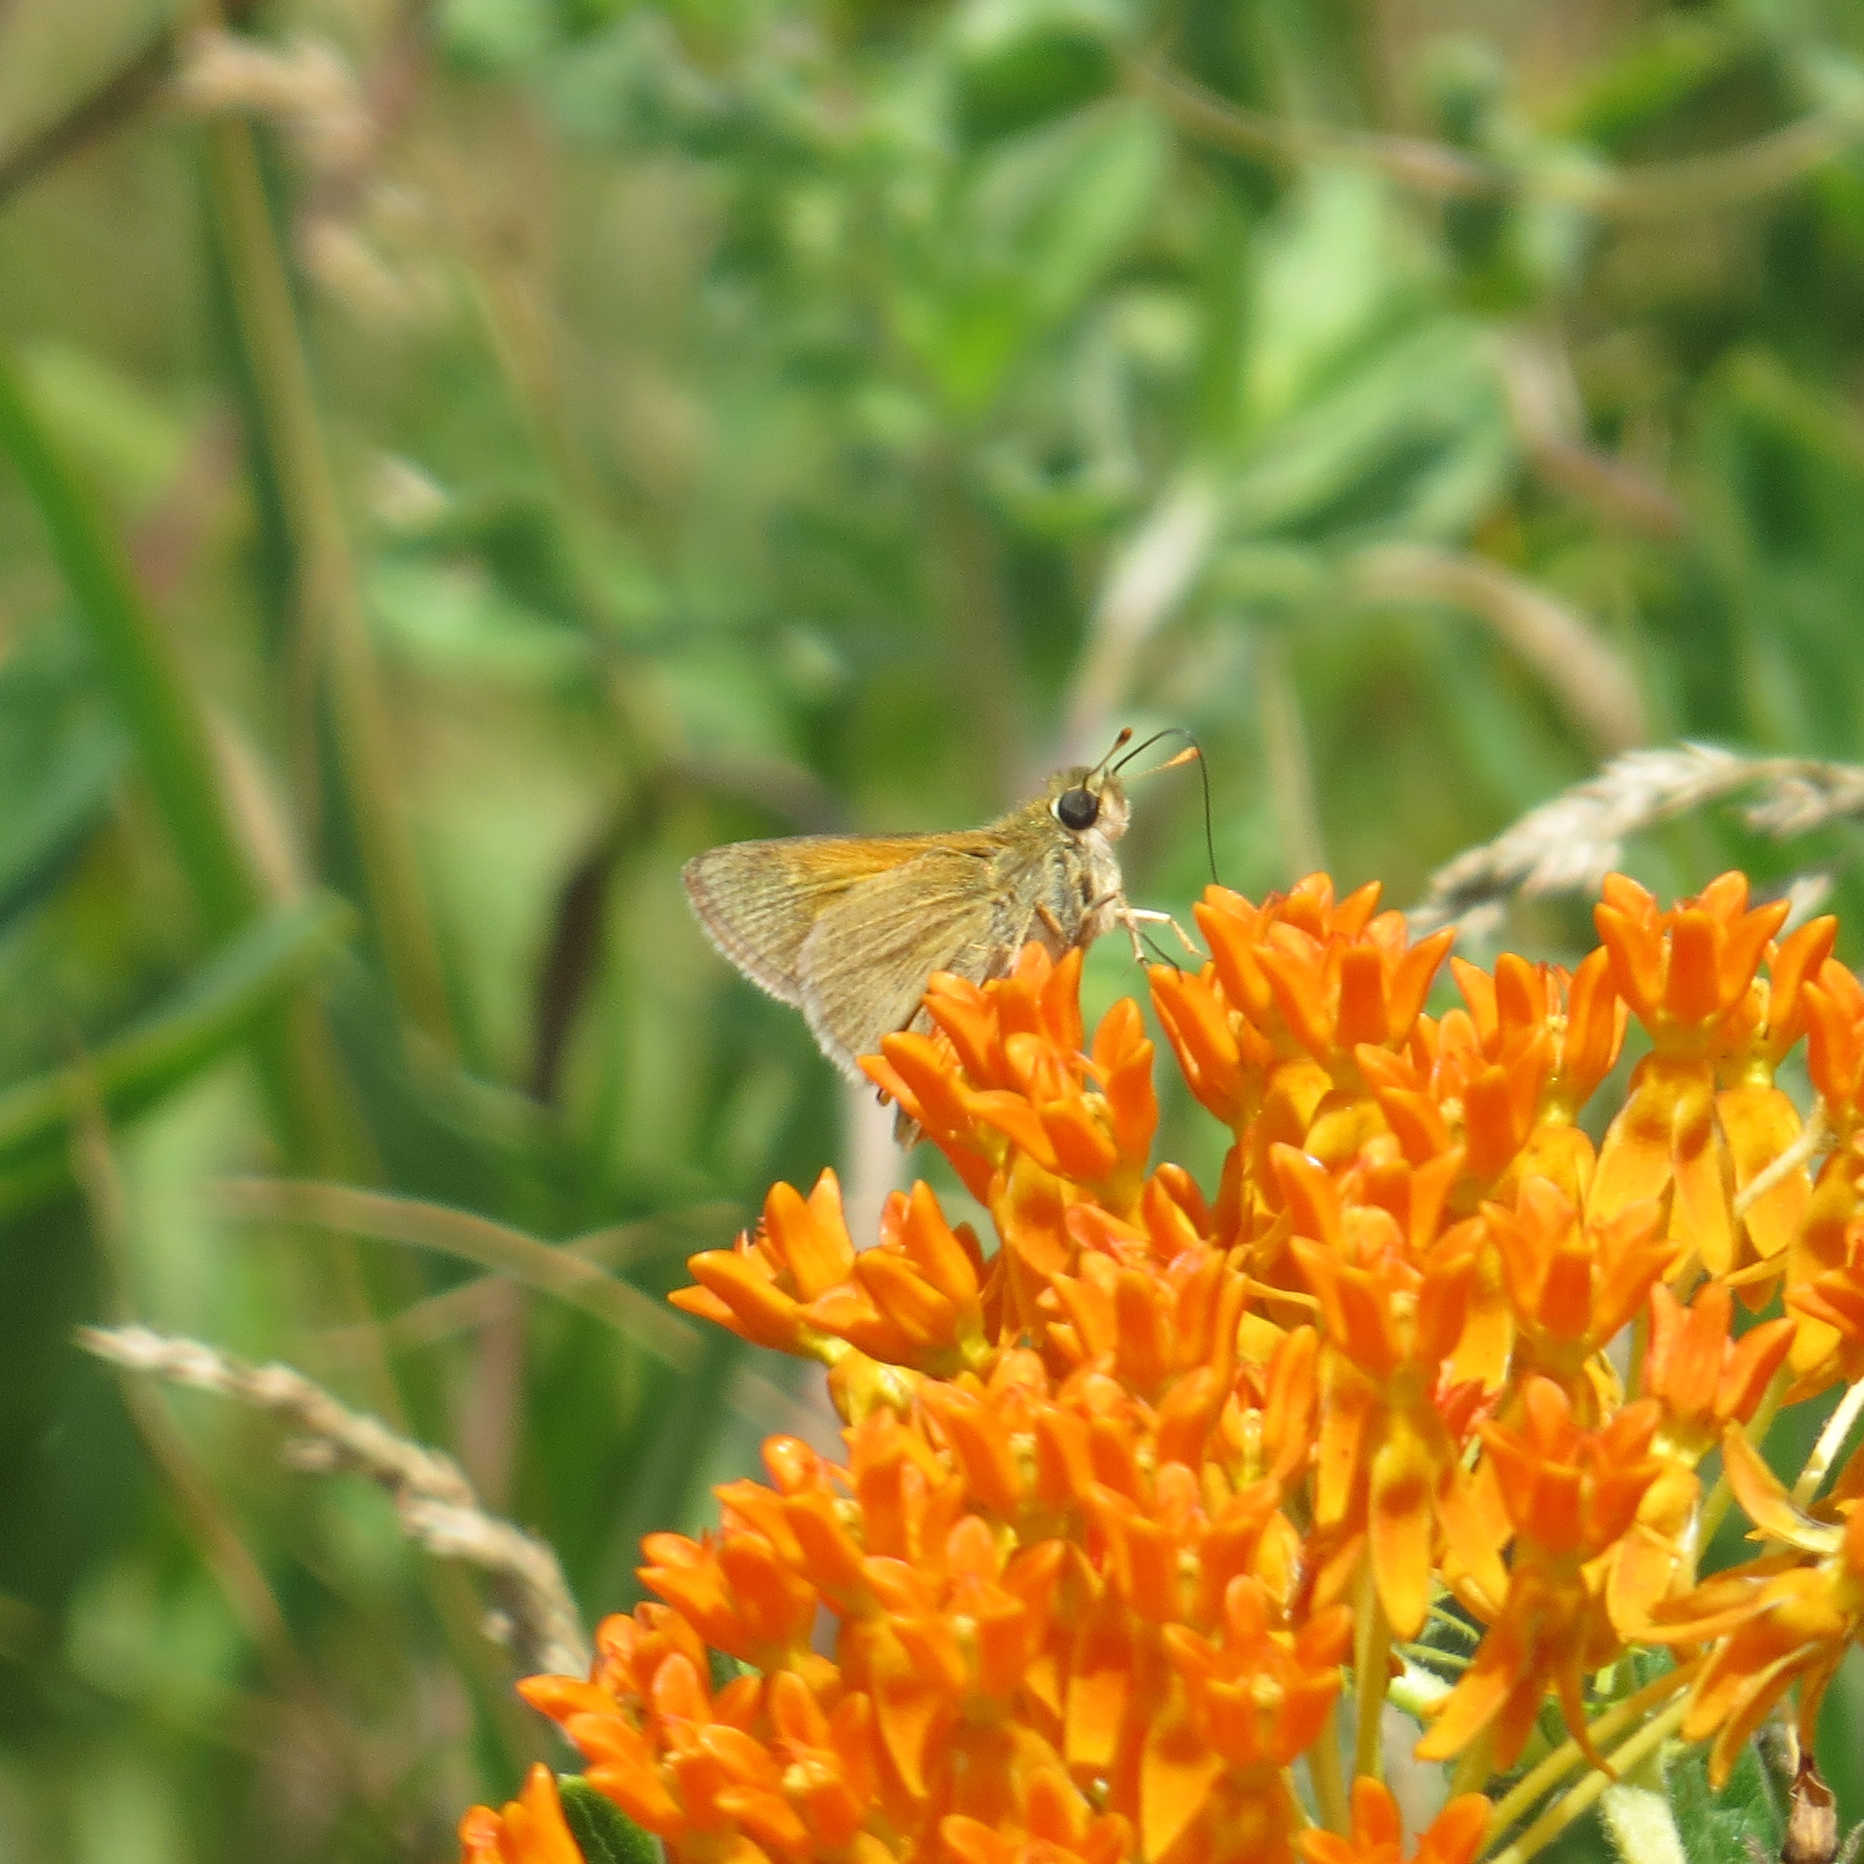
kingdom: Animalia
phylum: Arthropoda
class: Insecta
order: Lepidoptera
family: Hesperiidae
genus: Polites
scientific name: Polites themistocles
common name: Tawny-edged skipper
